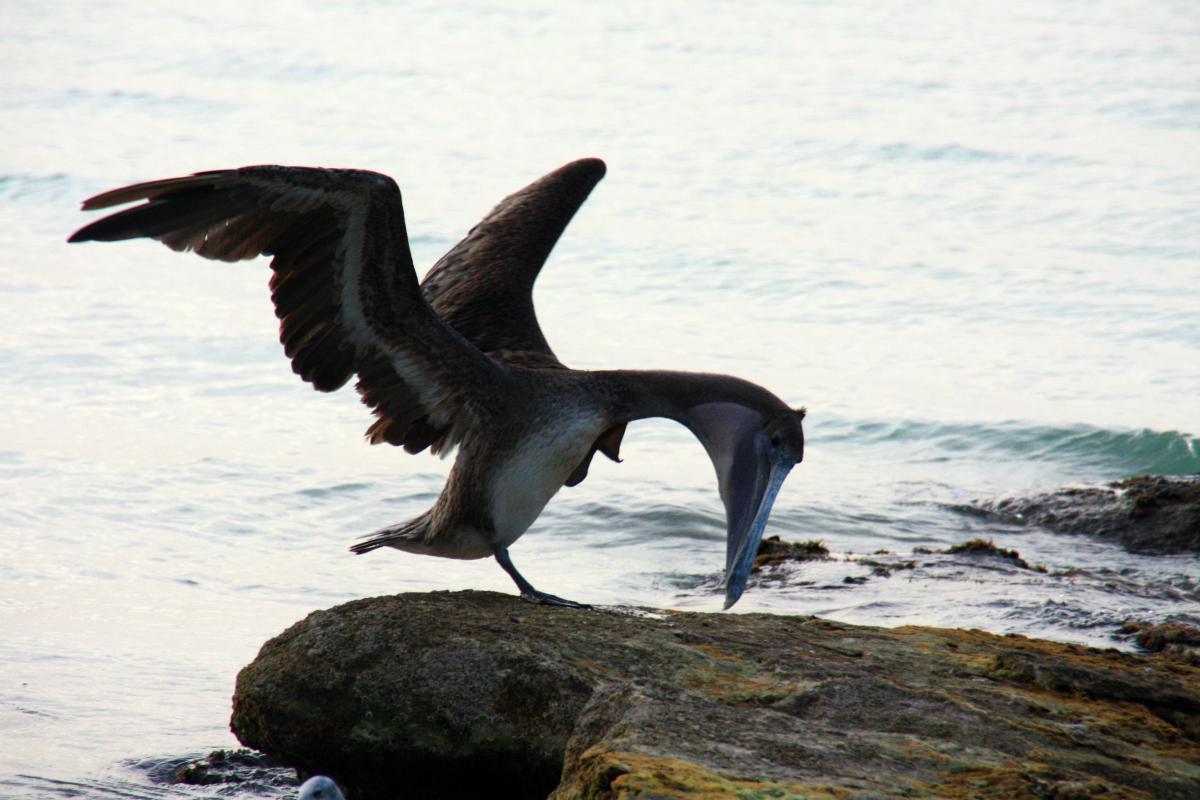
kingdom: Animalia
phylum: Chordata
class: Aves
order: Pelecaniformes
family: Pelecanidae
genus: Pelecanus
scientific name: Pelecanus occidentalis
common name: Brown pelican
